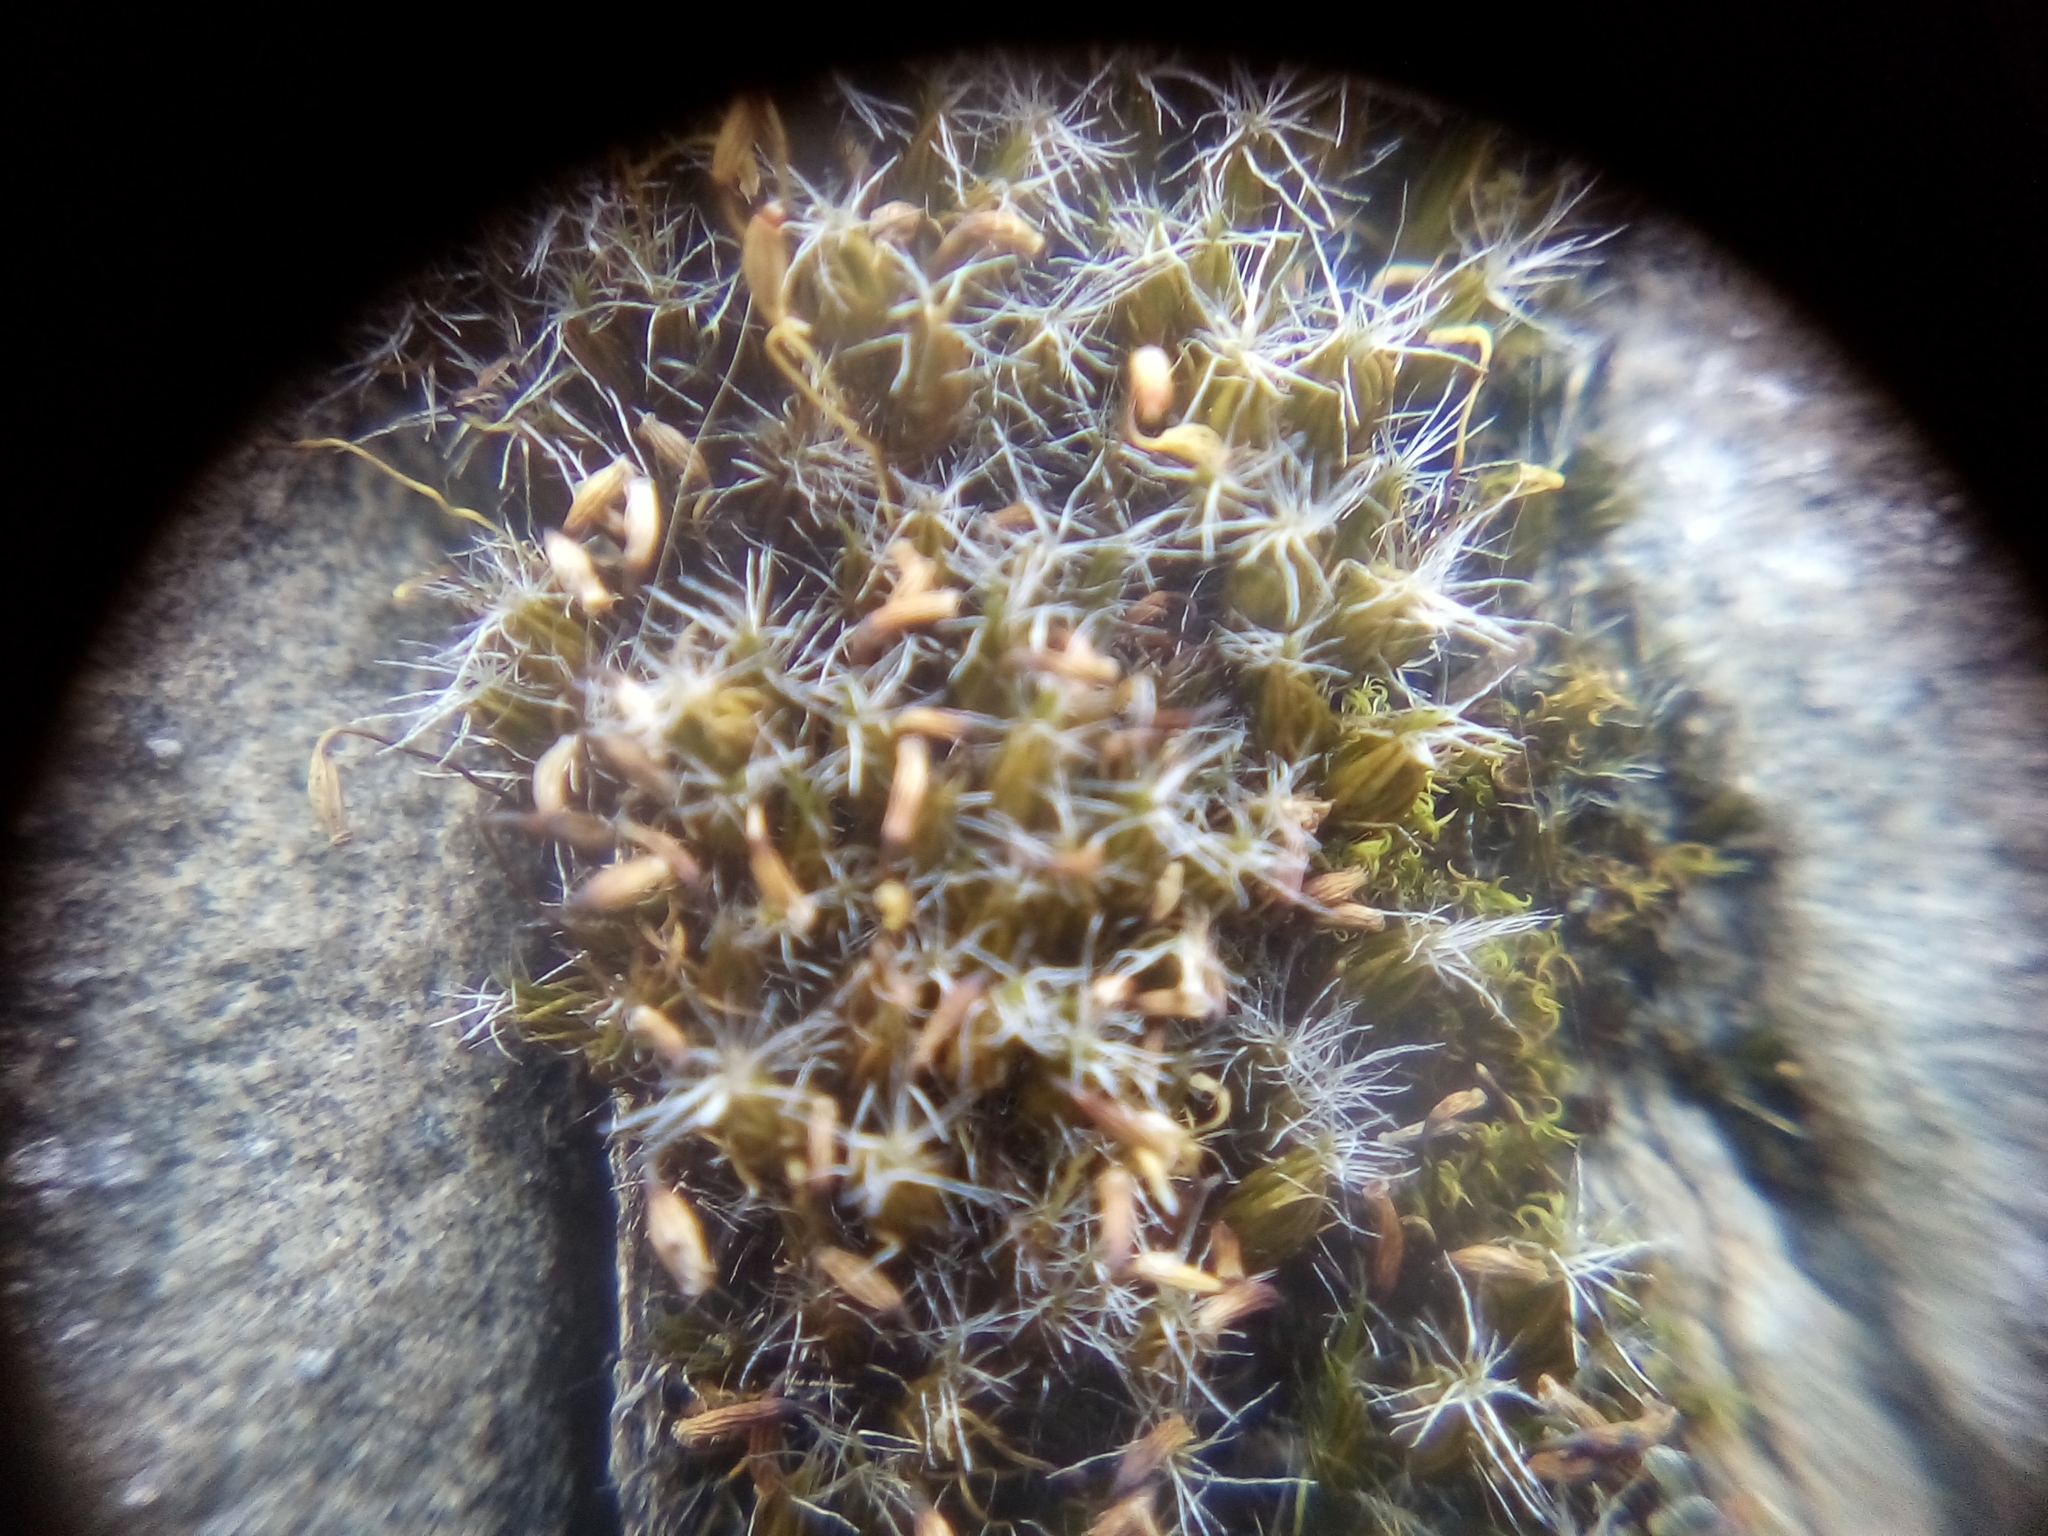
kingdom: Plantae
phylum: Bryophyta
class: Bryopsida
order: Dicranales
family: Leucobryaceae
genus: Campylopus
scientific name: Campylopus introflexus
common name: Heath star moss
